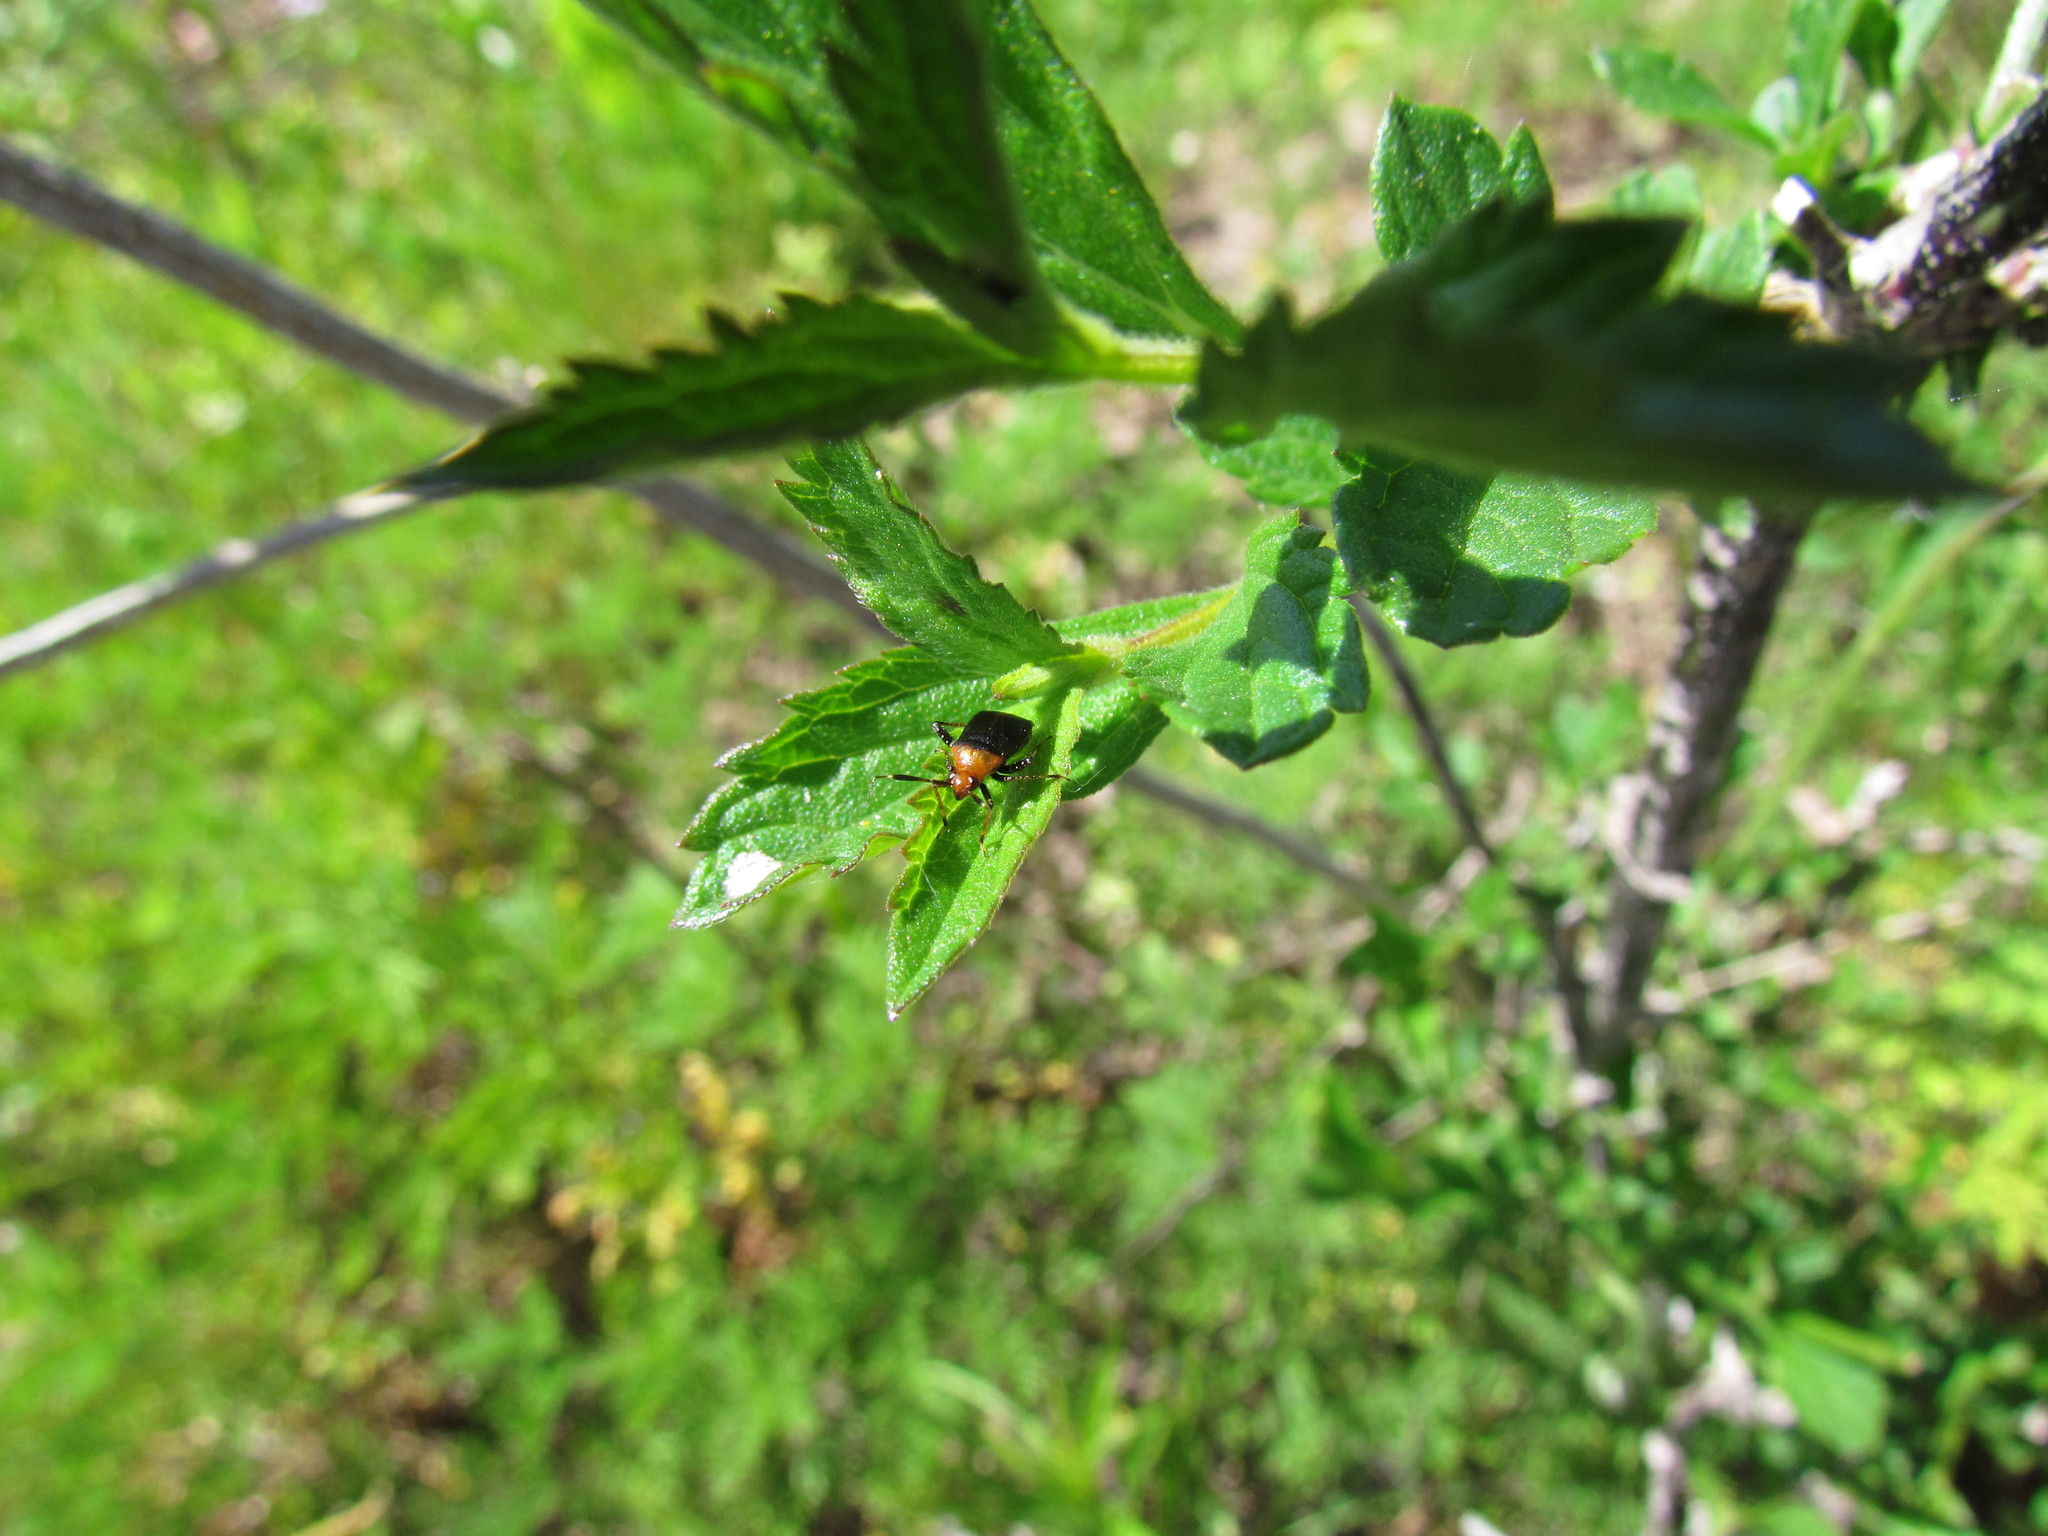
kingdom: Animalia
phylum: Arthropoda
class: Insecta
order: Hemiptera
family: Miridae
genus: Horciasinus
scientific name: Horciasinus argentinus
